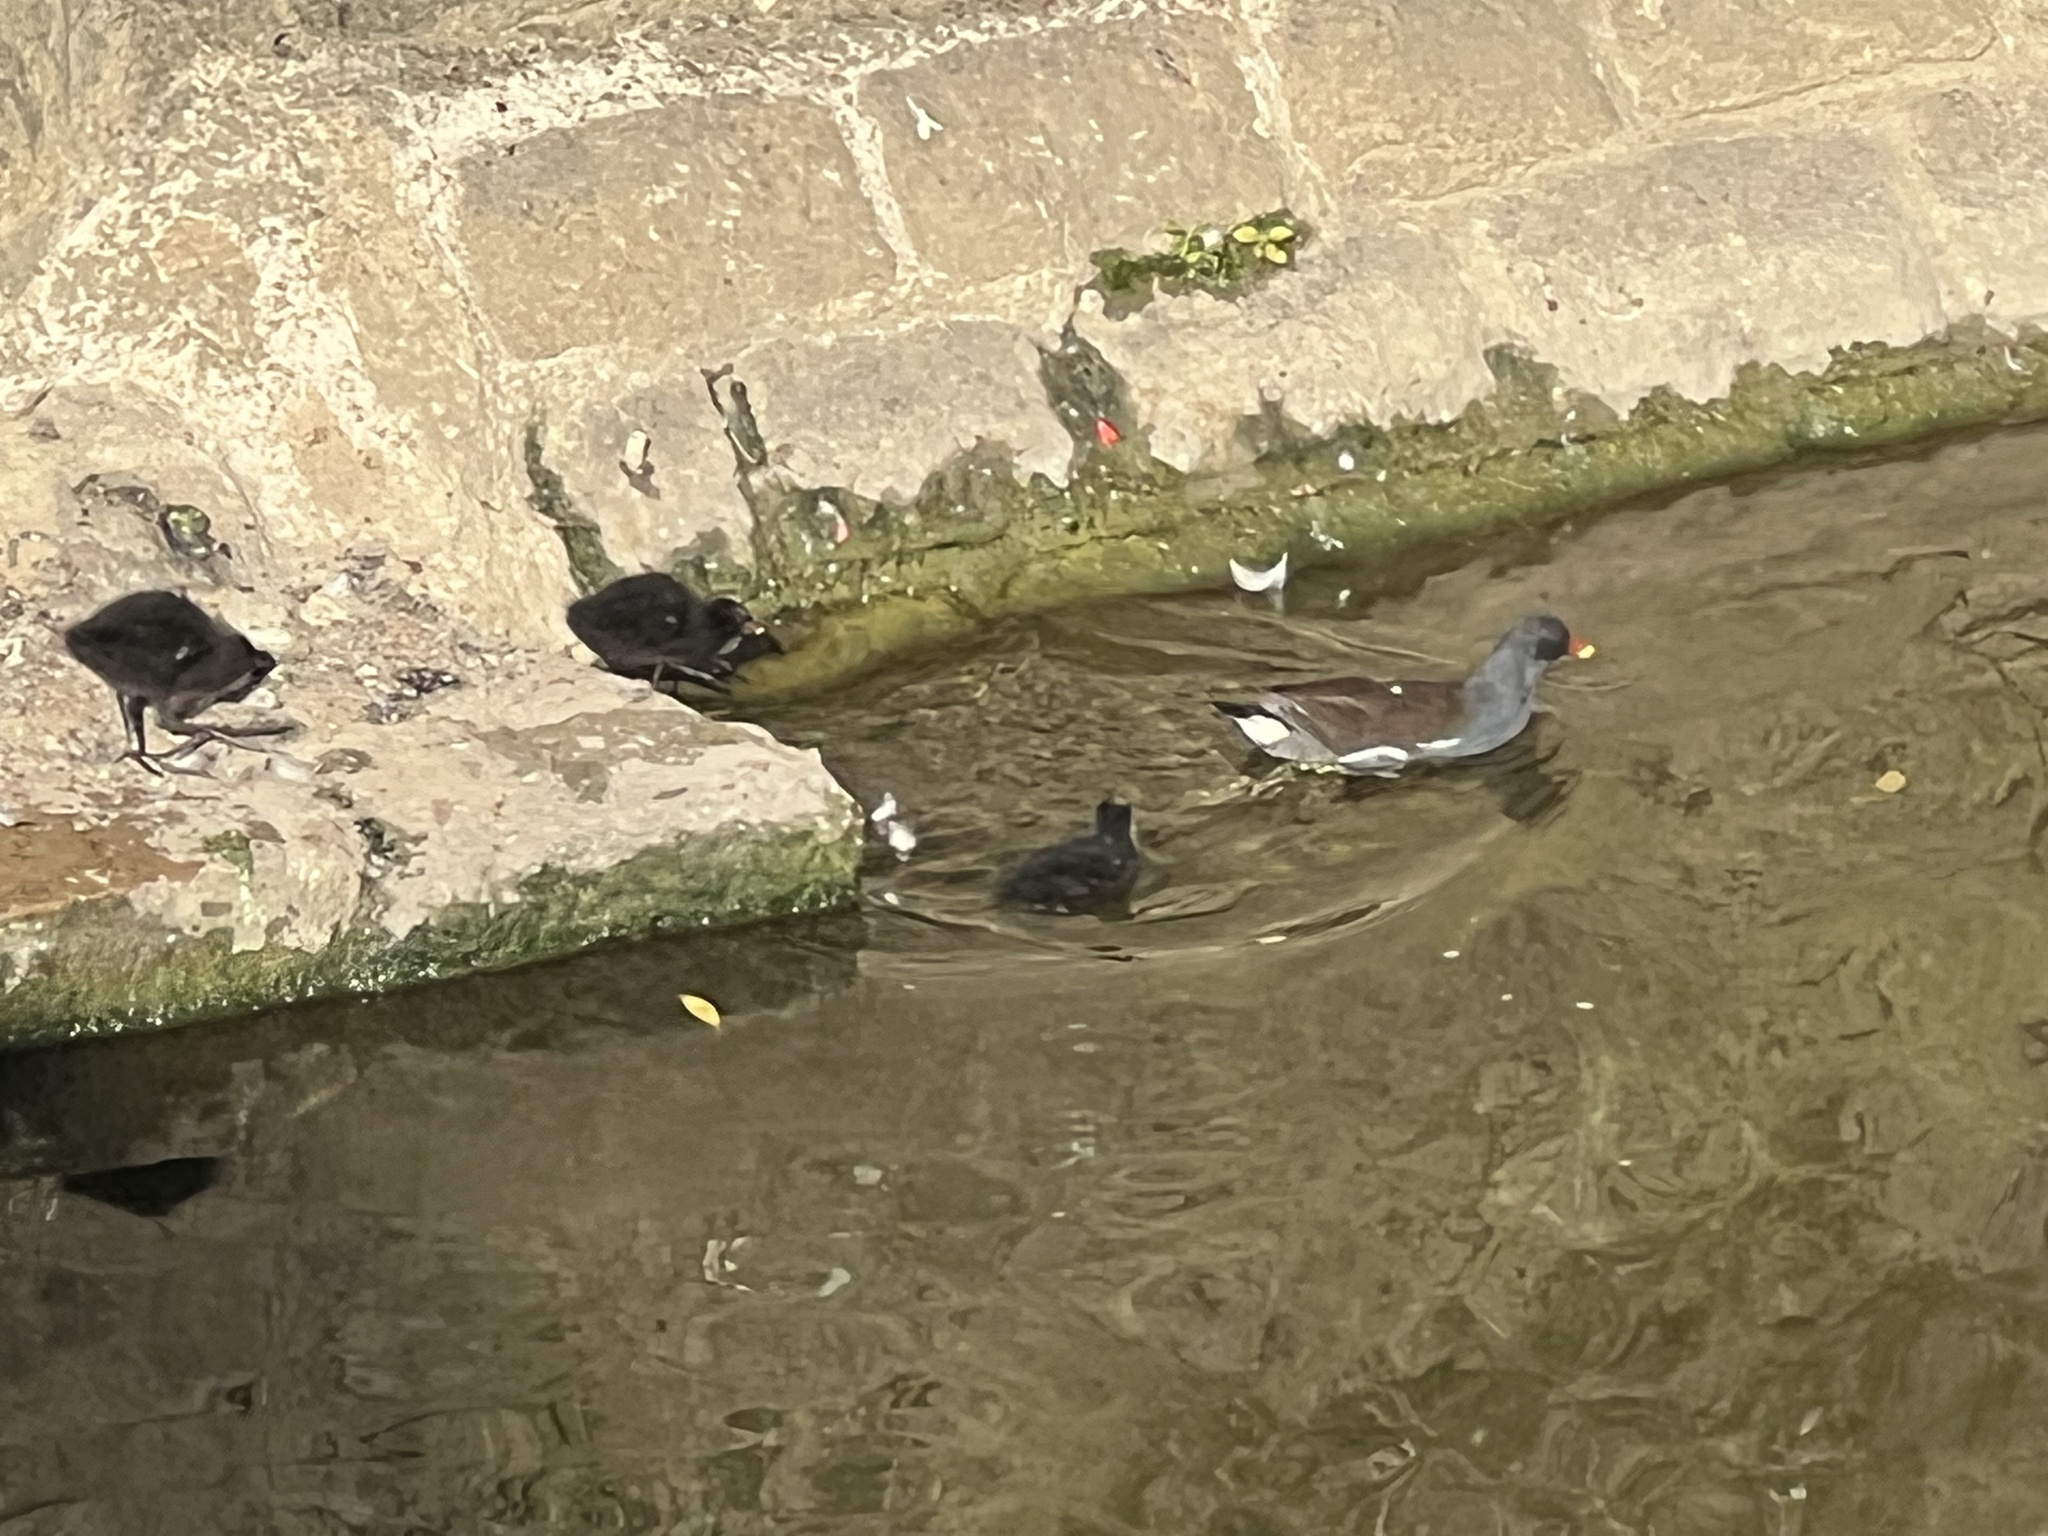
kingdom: Animalia
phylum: Chordata
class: Aves
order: Gruiformes
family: Rallidae
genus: Gallinula
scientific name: Gallinula chloropus
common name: Common moorhen
